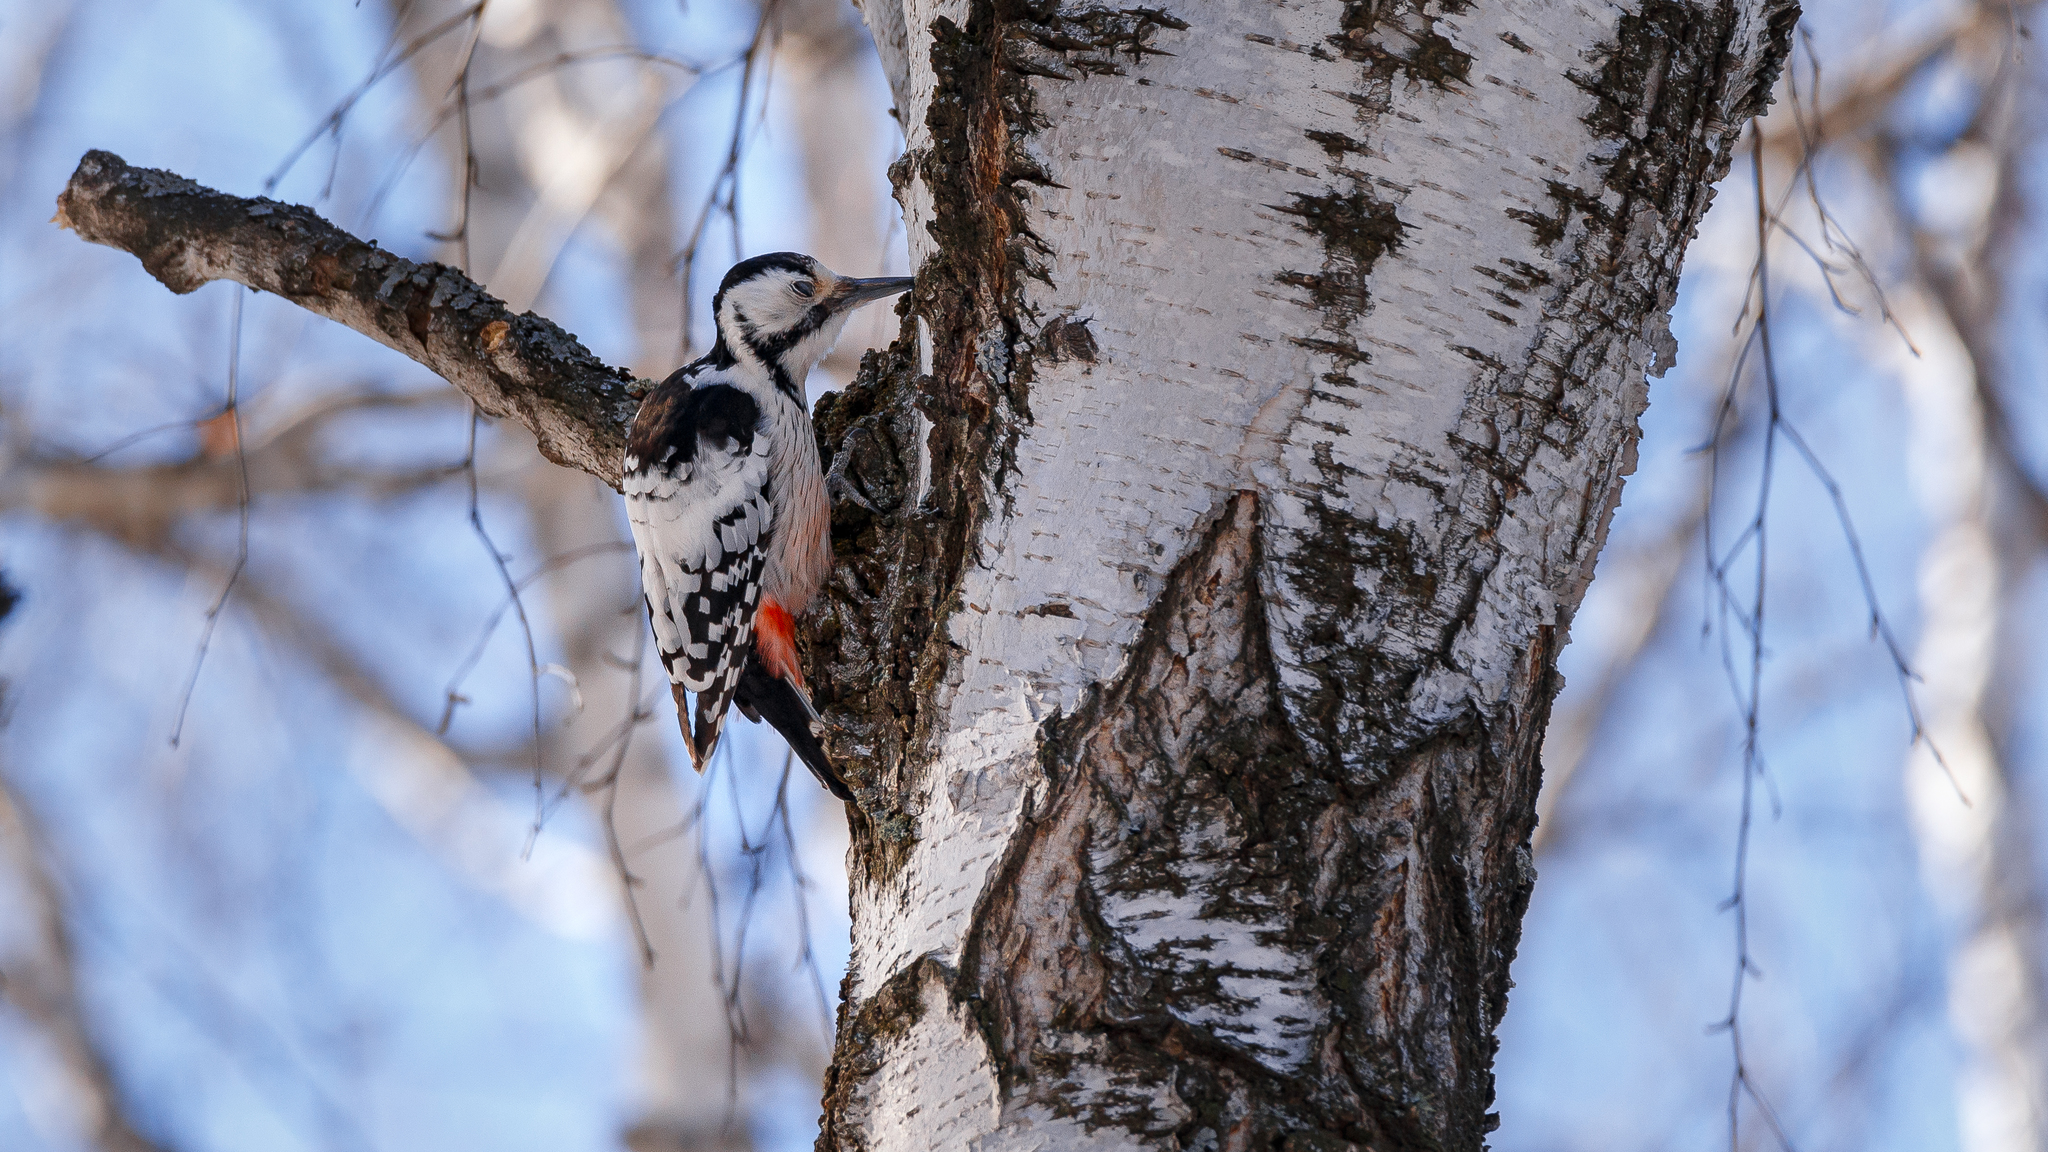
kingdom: Animalia
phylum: Chordata
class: Aves
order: Piciformes
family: Picidae
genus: Dendrocopos
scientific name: Dendrocopos leucotos
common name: White-backed woodpecker
